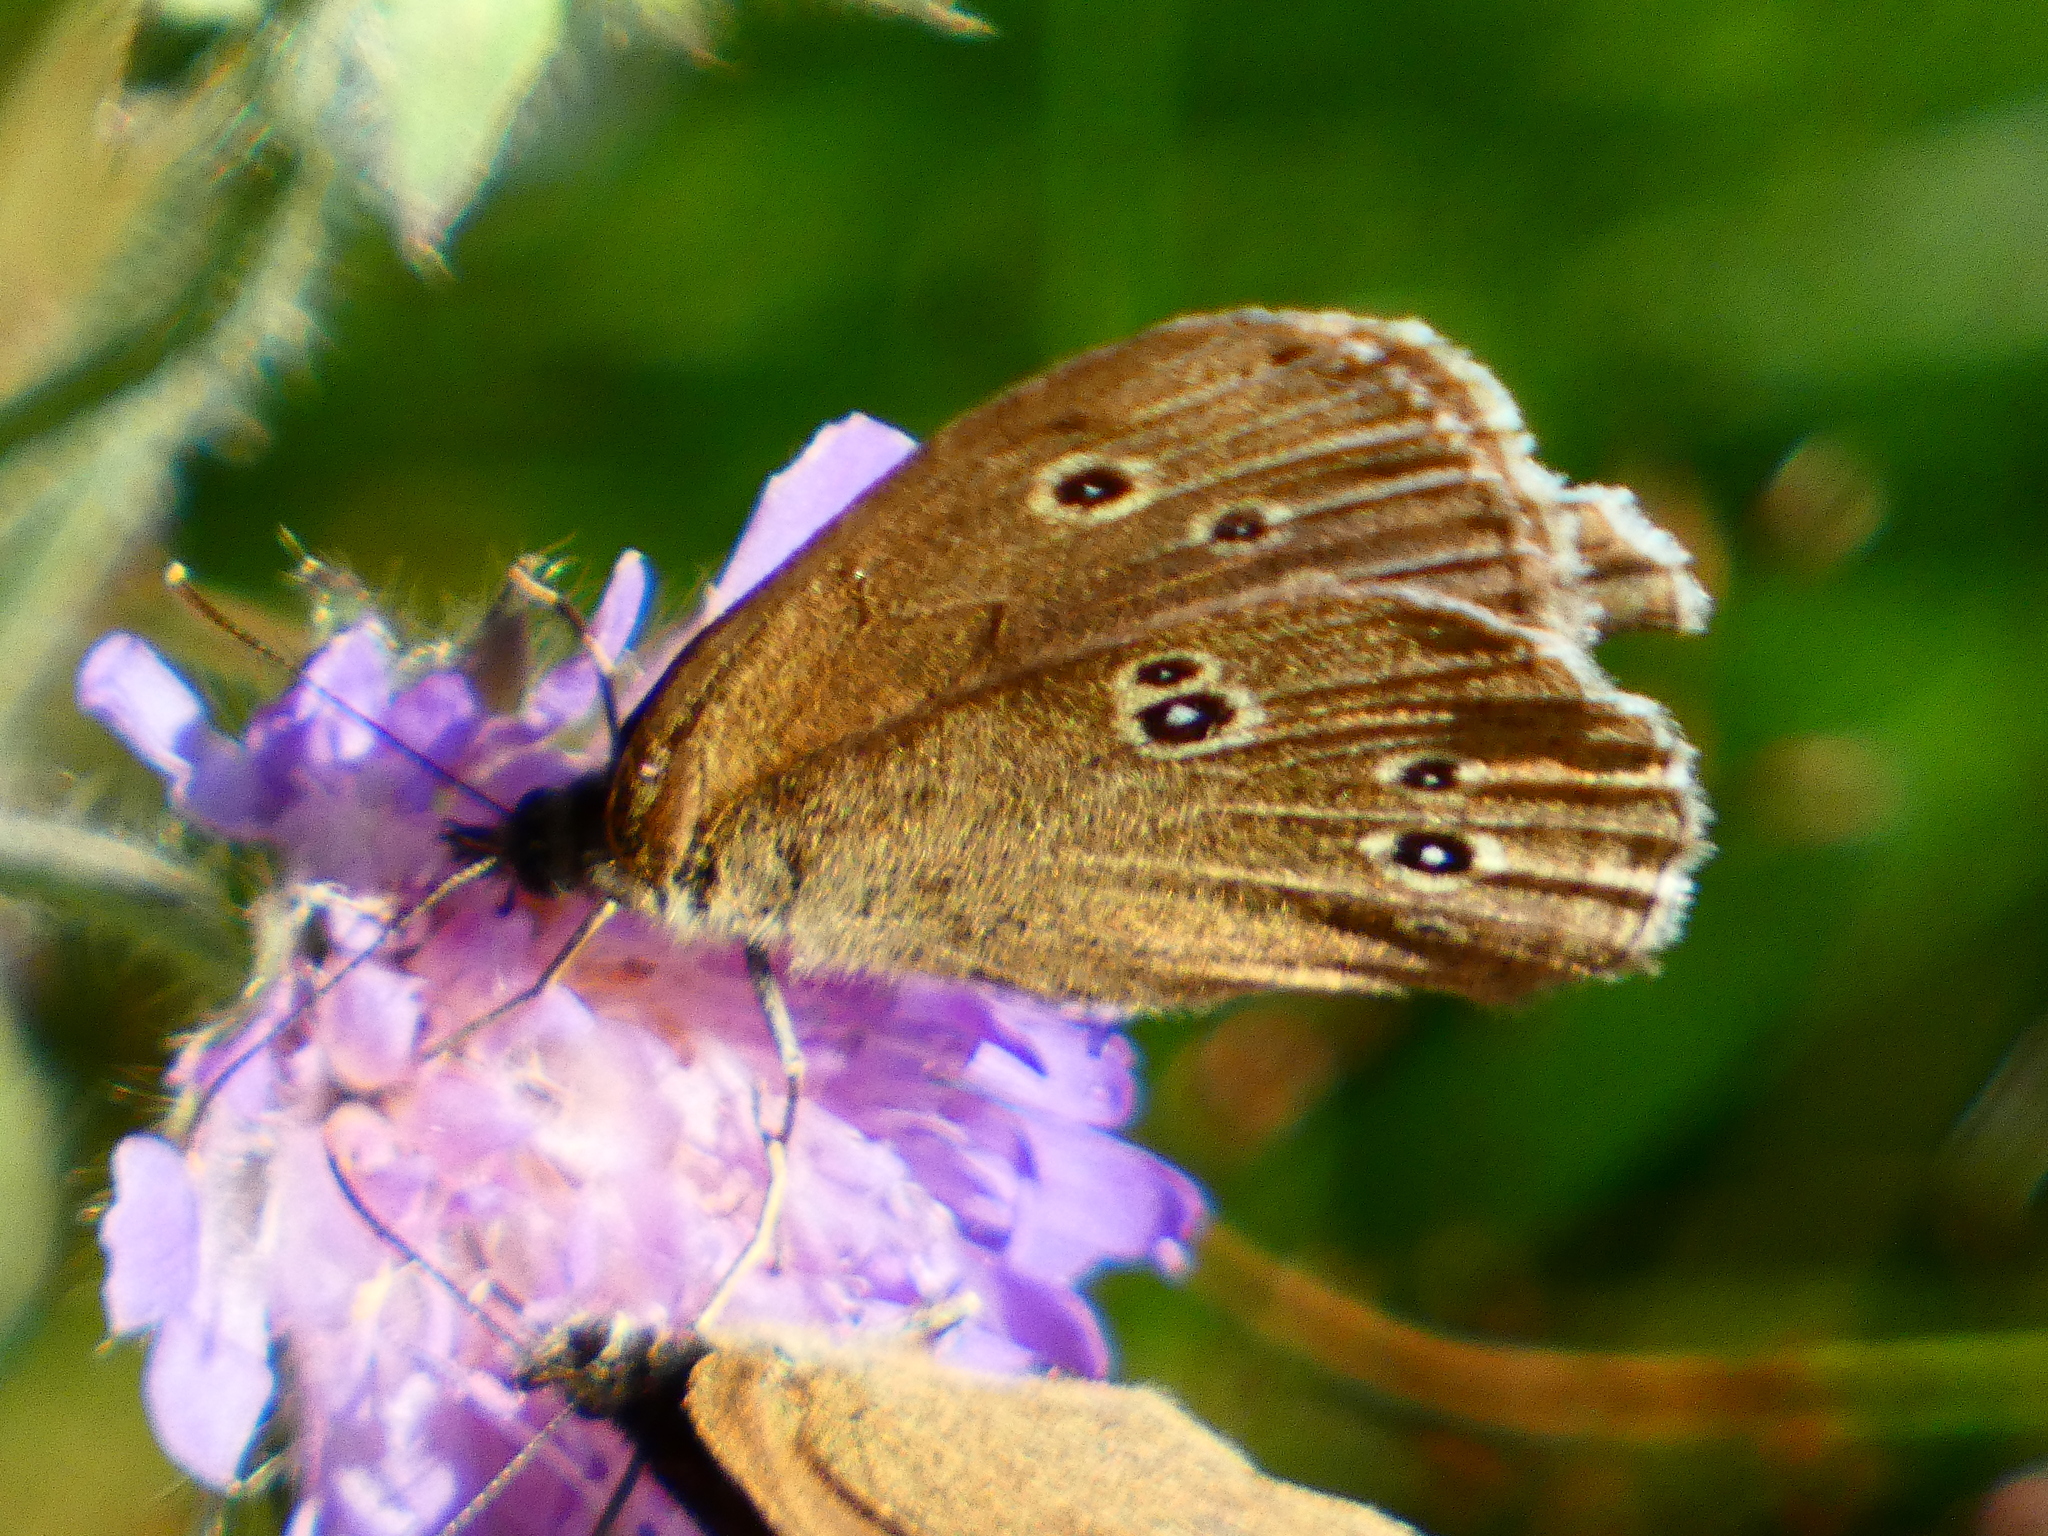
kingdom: Animalia
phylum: Arthropoda
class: Insecta
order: Lepidoptera
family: Nymphalidae
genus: Aphantopus
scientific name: Aphantopus hyperantus
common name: Ringlet
